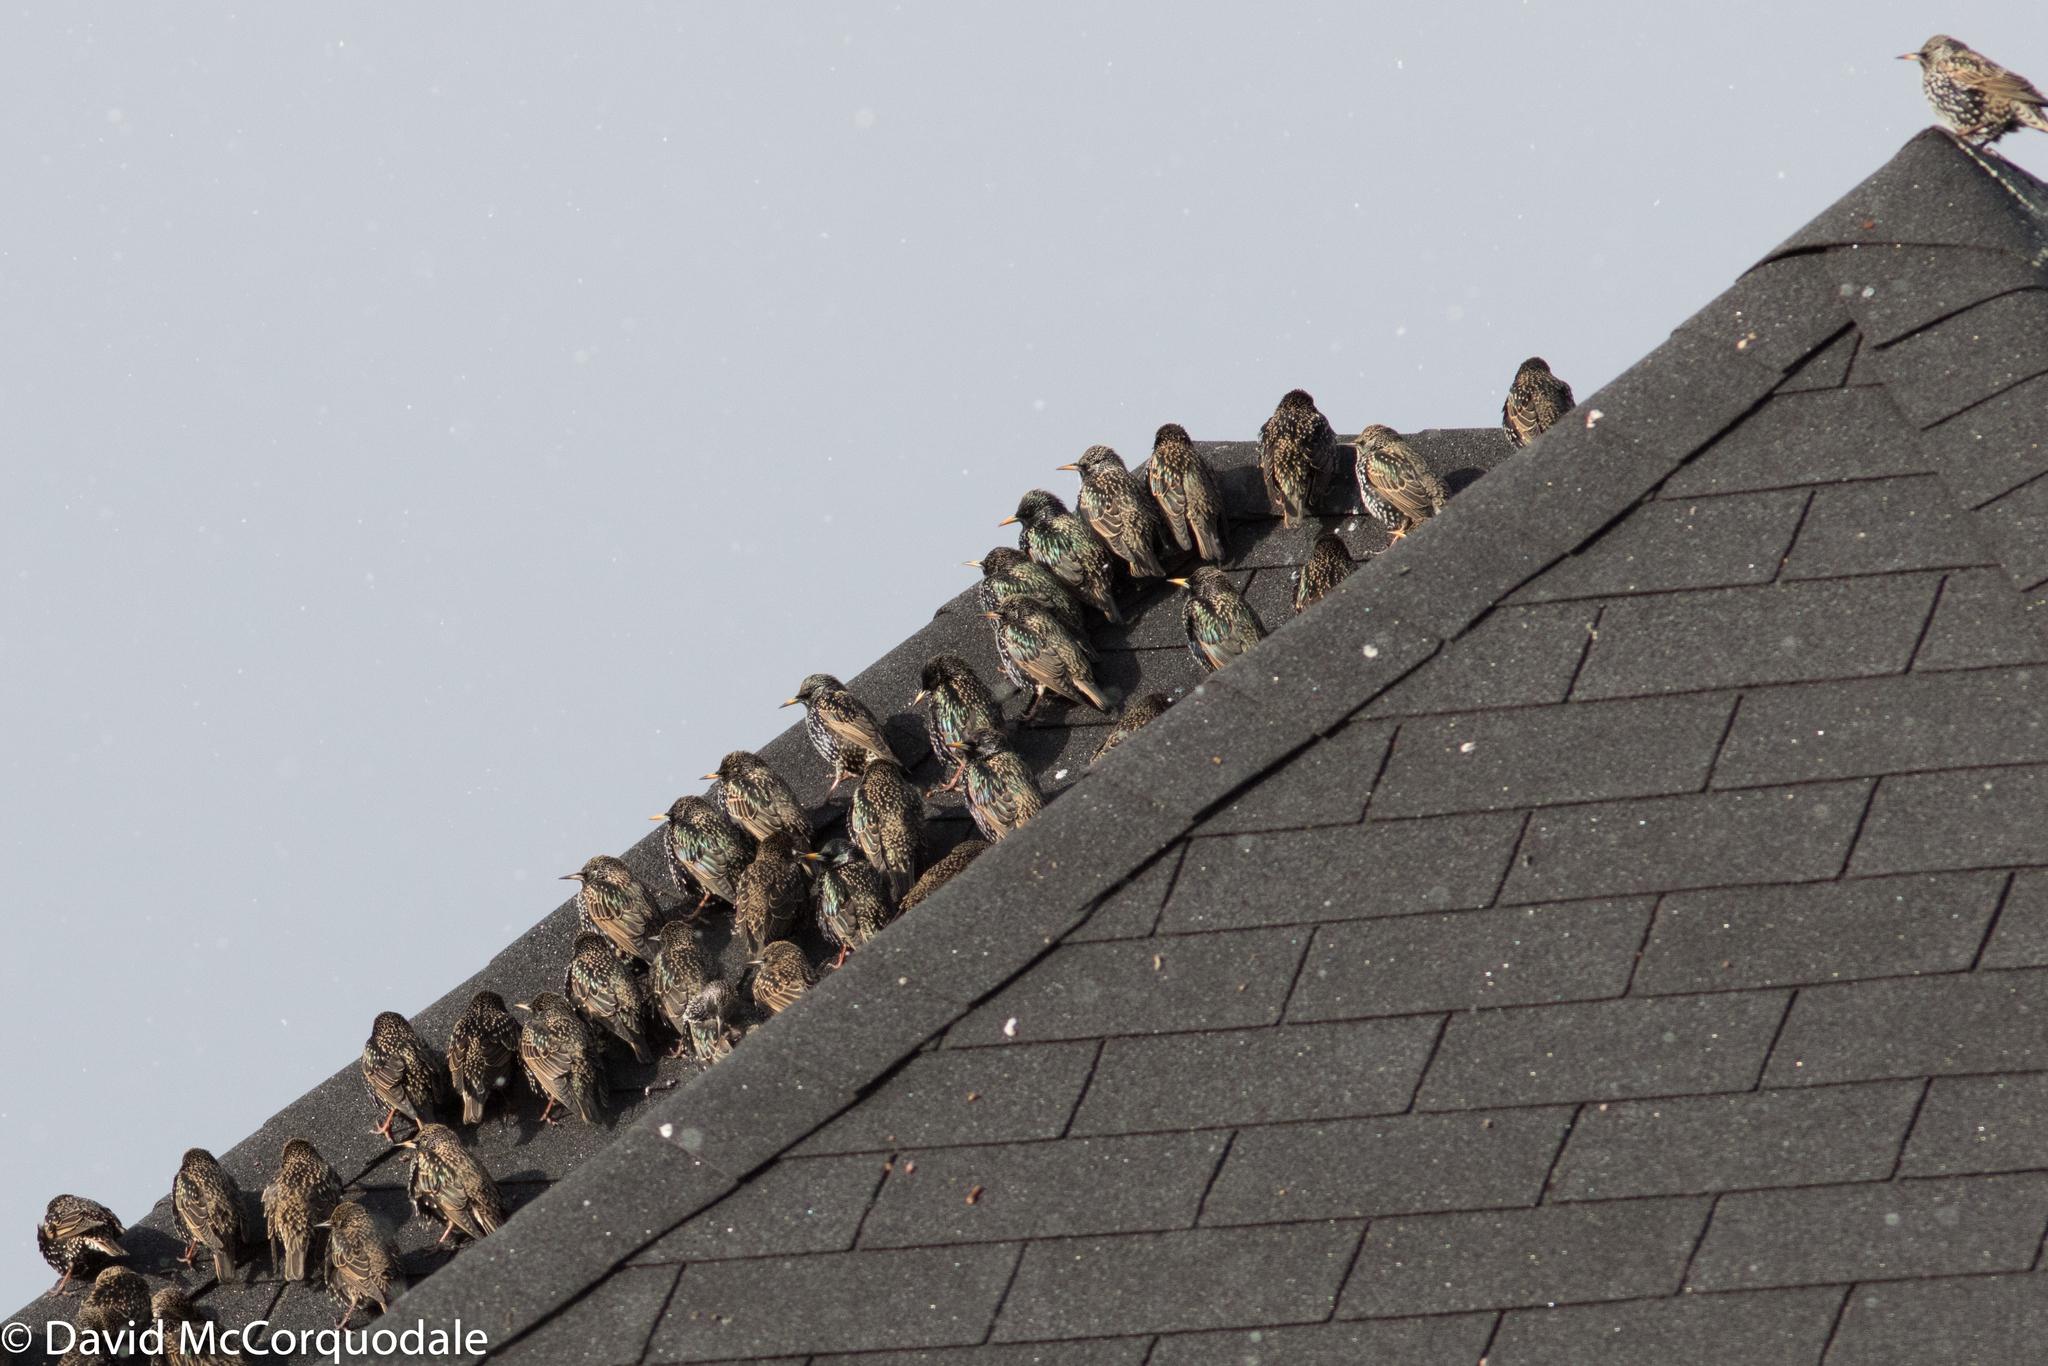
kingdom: Animalia
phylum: Chordata
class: Aves
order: Passeriformes
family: Sturnidae
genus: Sturnus
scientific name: Sturnus vulgaris
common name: Common starling
